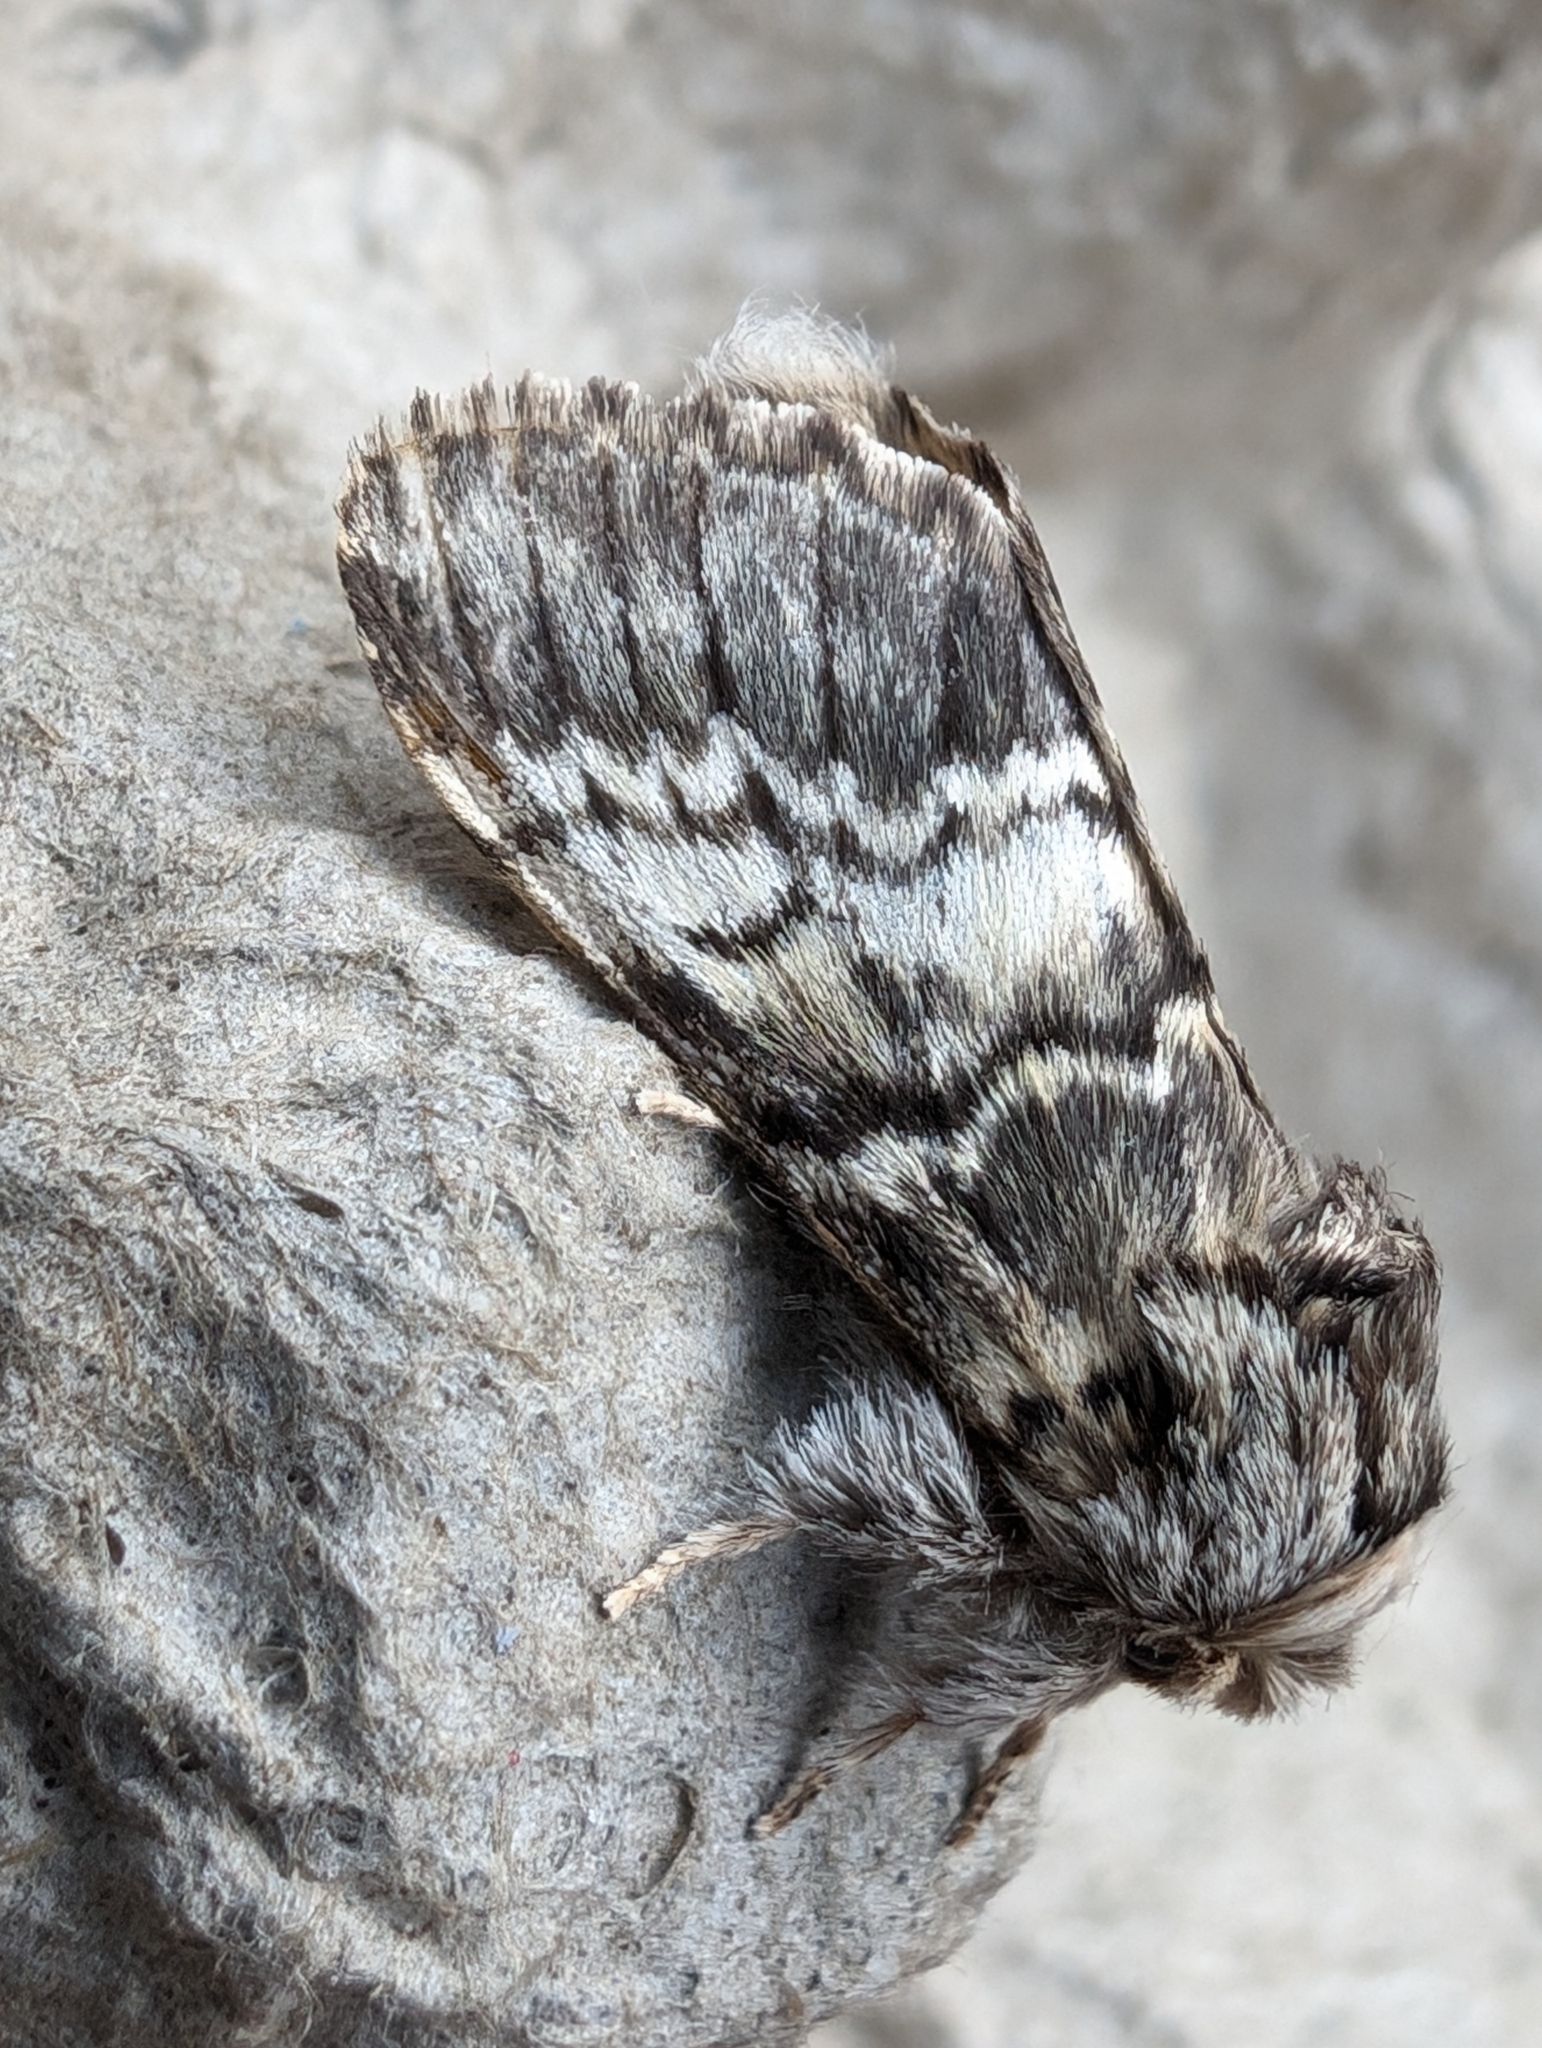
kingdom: Animalia
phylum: Arthropoda
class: Insecta
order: Lepidoptera
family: Notodontidae
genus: Drymonia
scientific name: Drymonia ruficornis
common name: Lunar marbled brown
